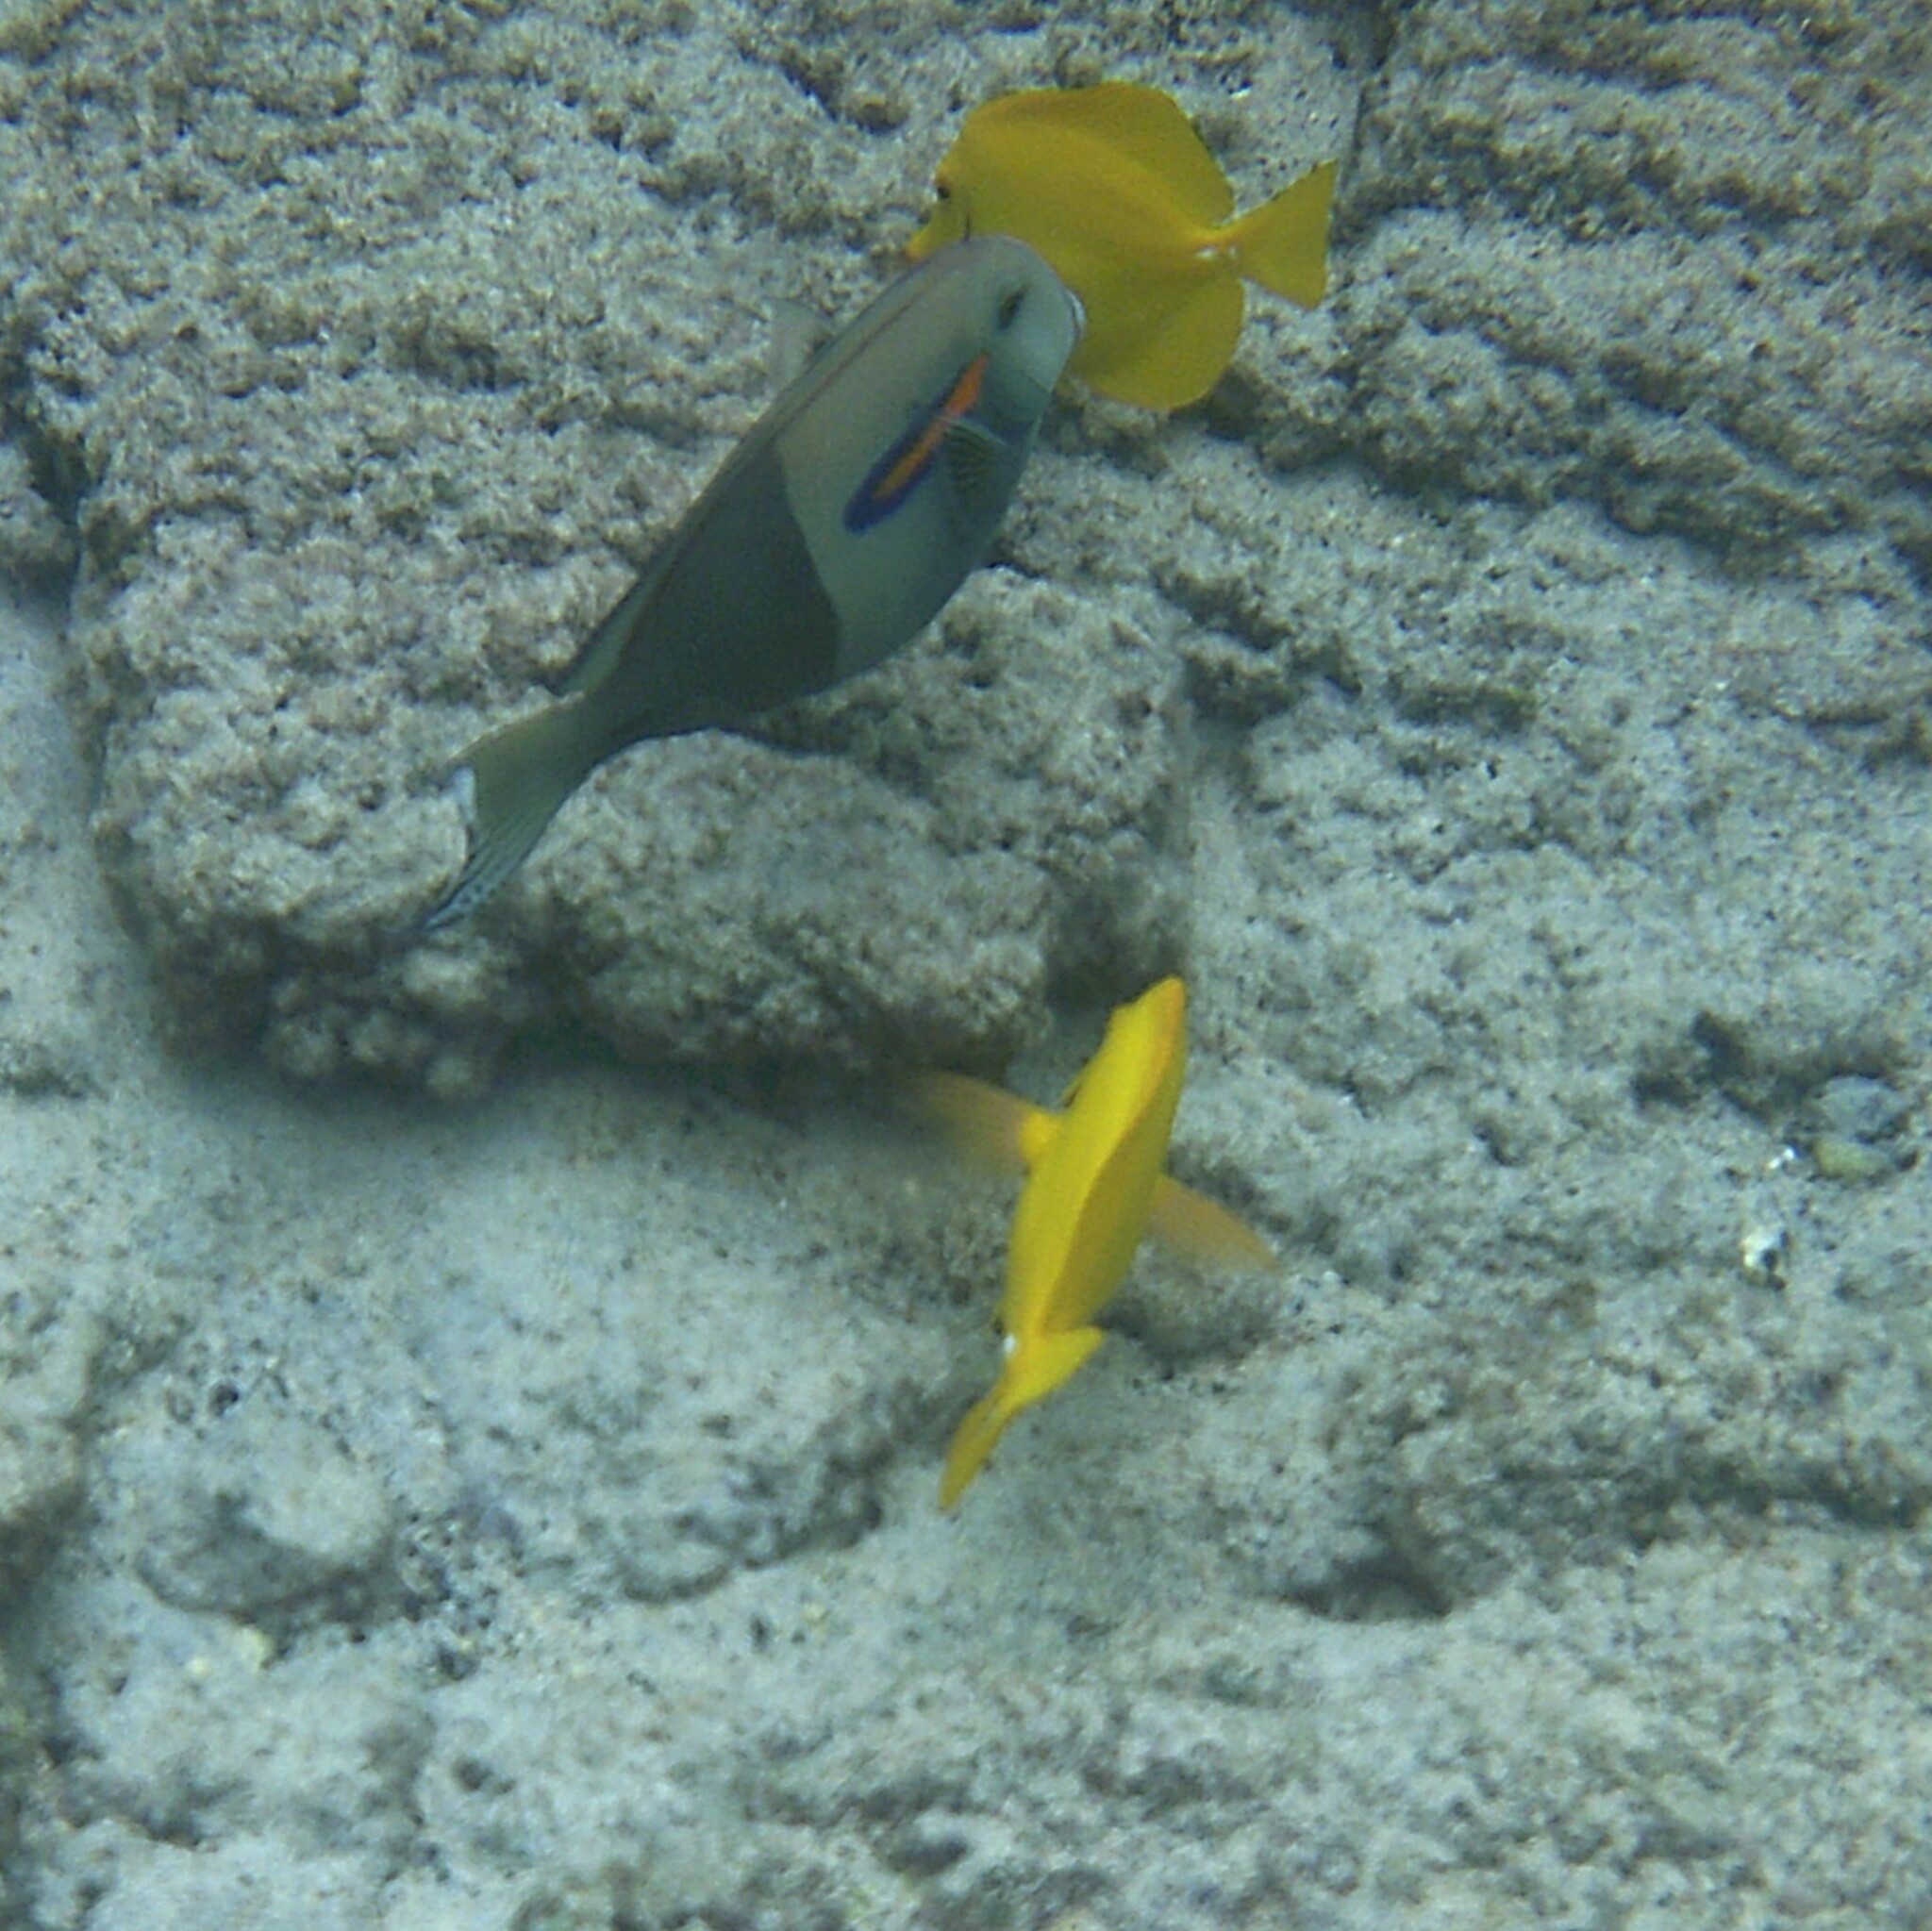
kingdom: Animalia
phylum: Chordata
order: Perciformes
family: Acanthuridae
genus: Zebrasoma
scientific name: Zebrasoma flavescens
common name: Yellow tang
